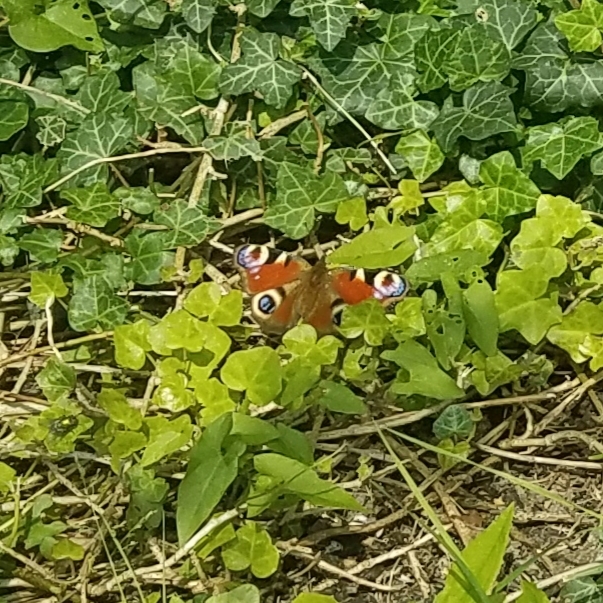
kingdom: Animalia
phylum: Arthropoda
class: Insecta
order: Lepidoptera
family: Nymphalidae
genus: Aglais
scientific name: Aglais io
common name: Peacock
